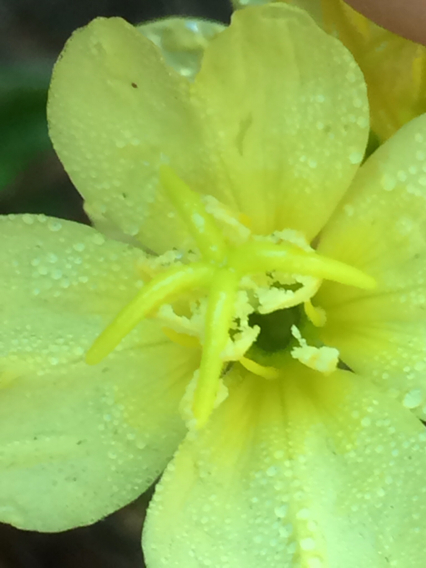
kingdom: Plantae
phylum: Tracheophyta
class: Magnoliopsida
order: Myrtales
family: Onagraceae
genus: Oenothera
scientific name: Oenothera laciniata
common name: Cut-leaved evening-primrose
